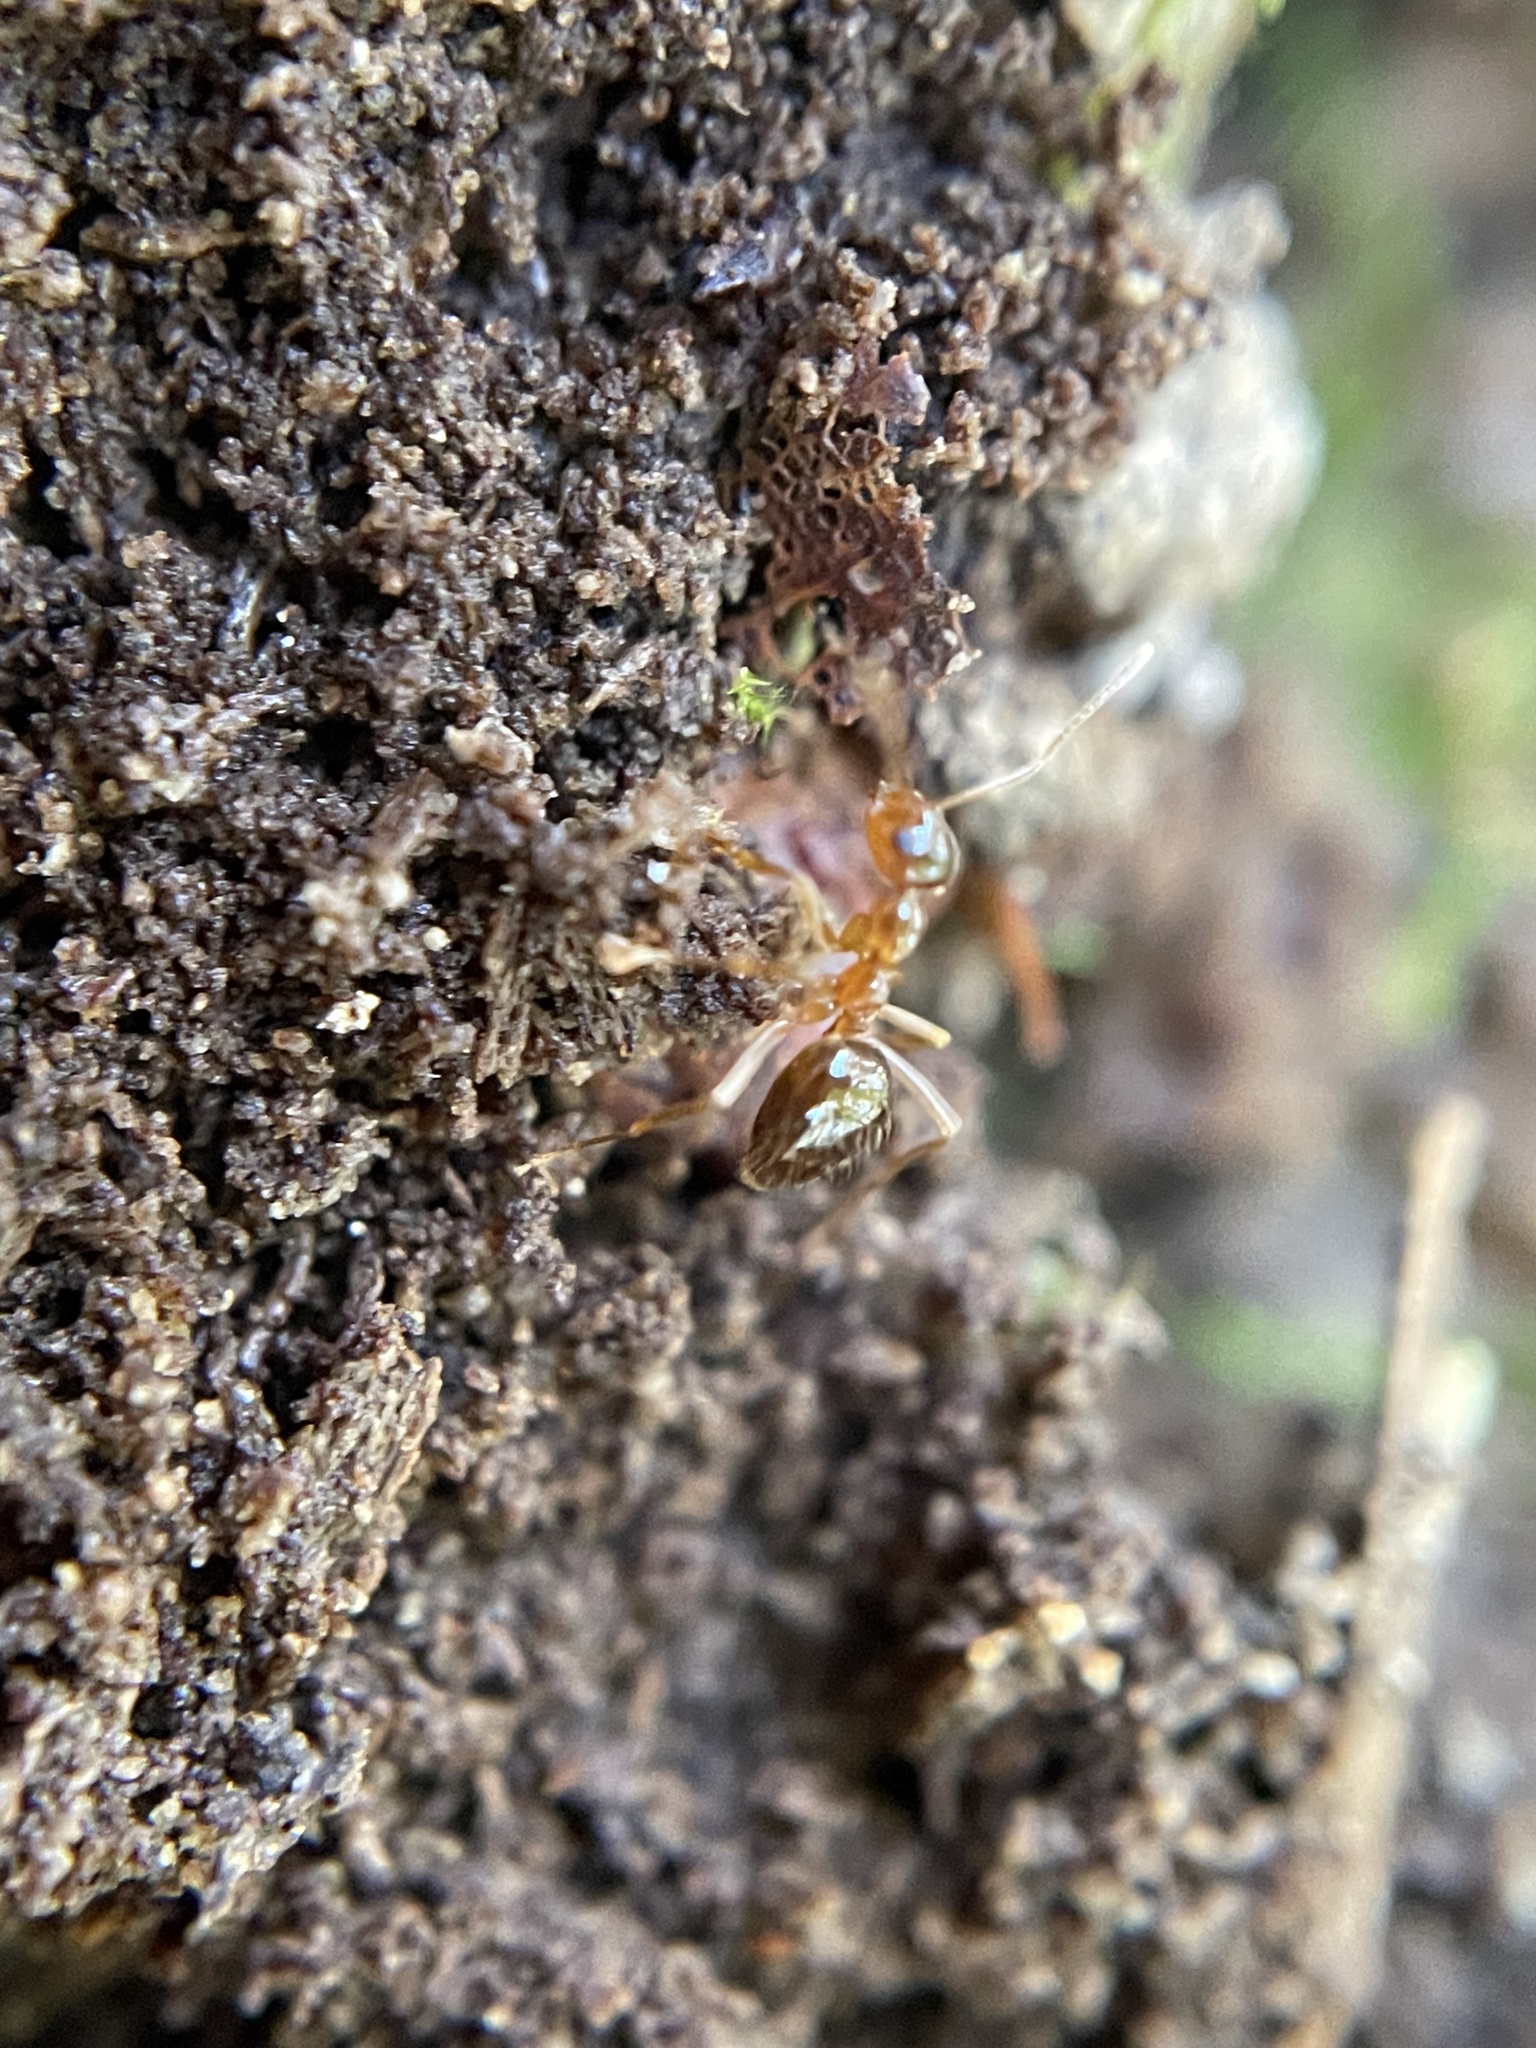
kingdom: Animalia
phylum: Arthropoda
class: Insecta
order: Hymenoptera
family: Formicidae
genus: Prenolepis
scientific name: Prenolepis imparis
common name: Small honey ant
